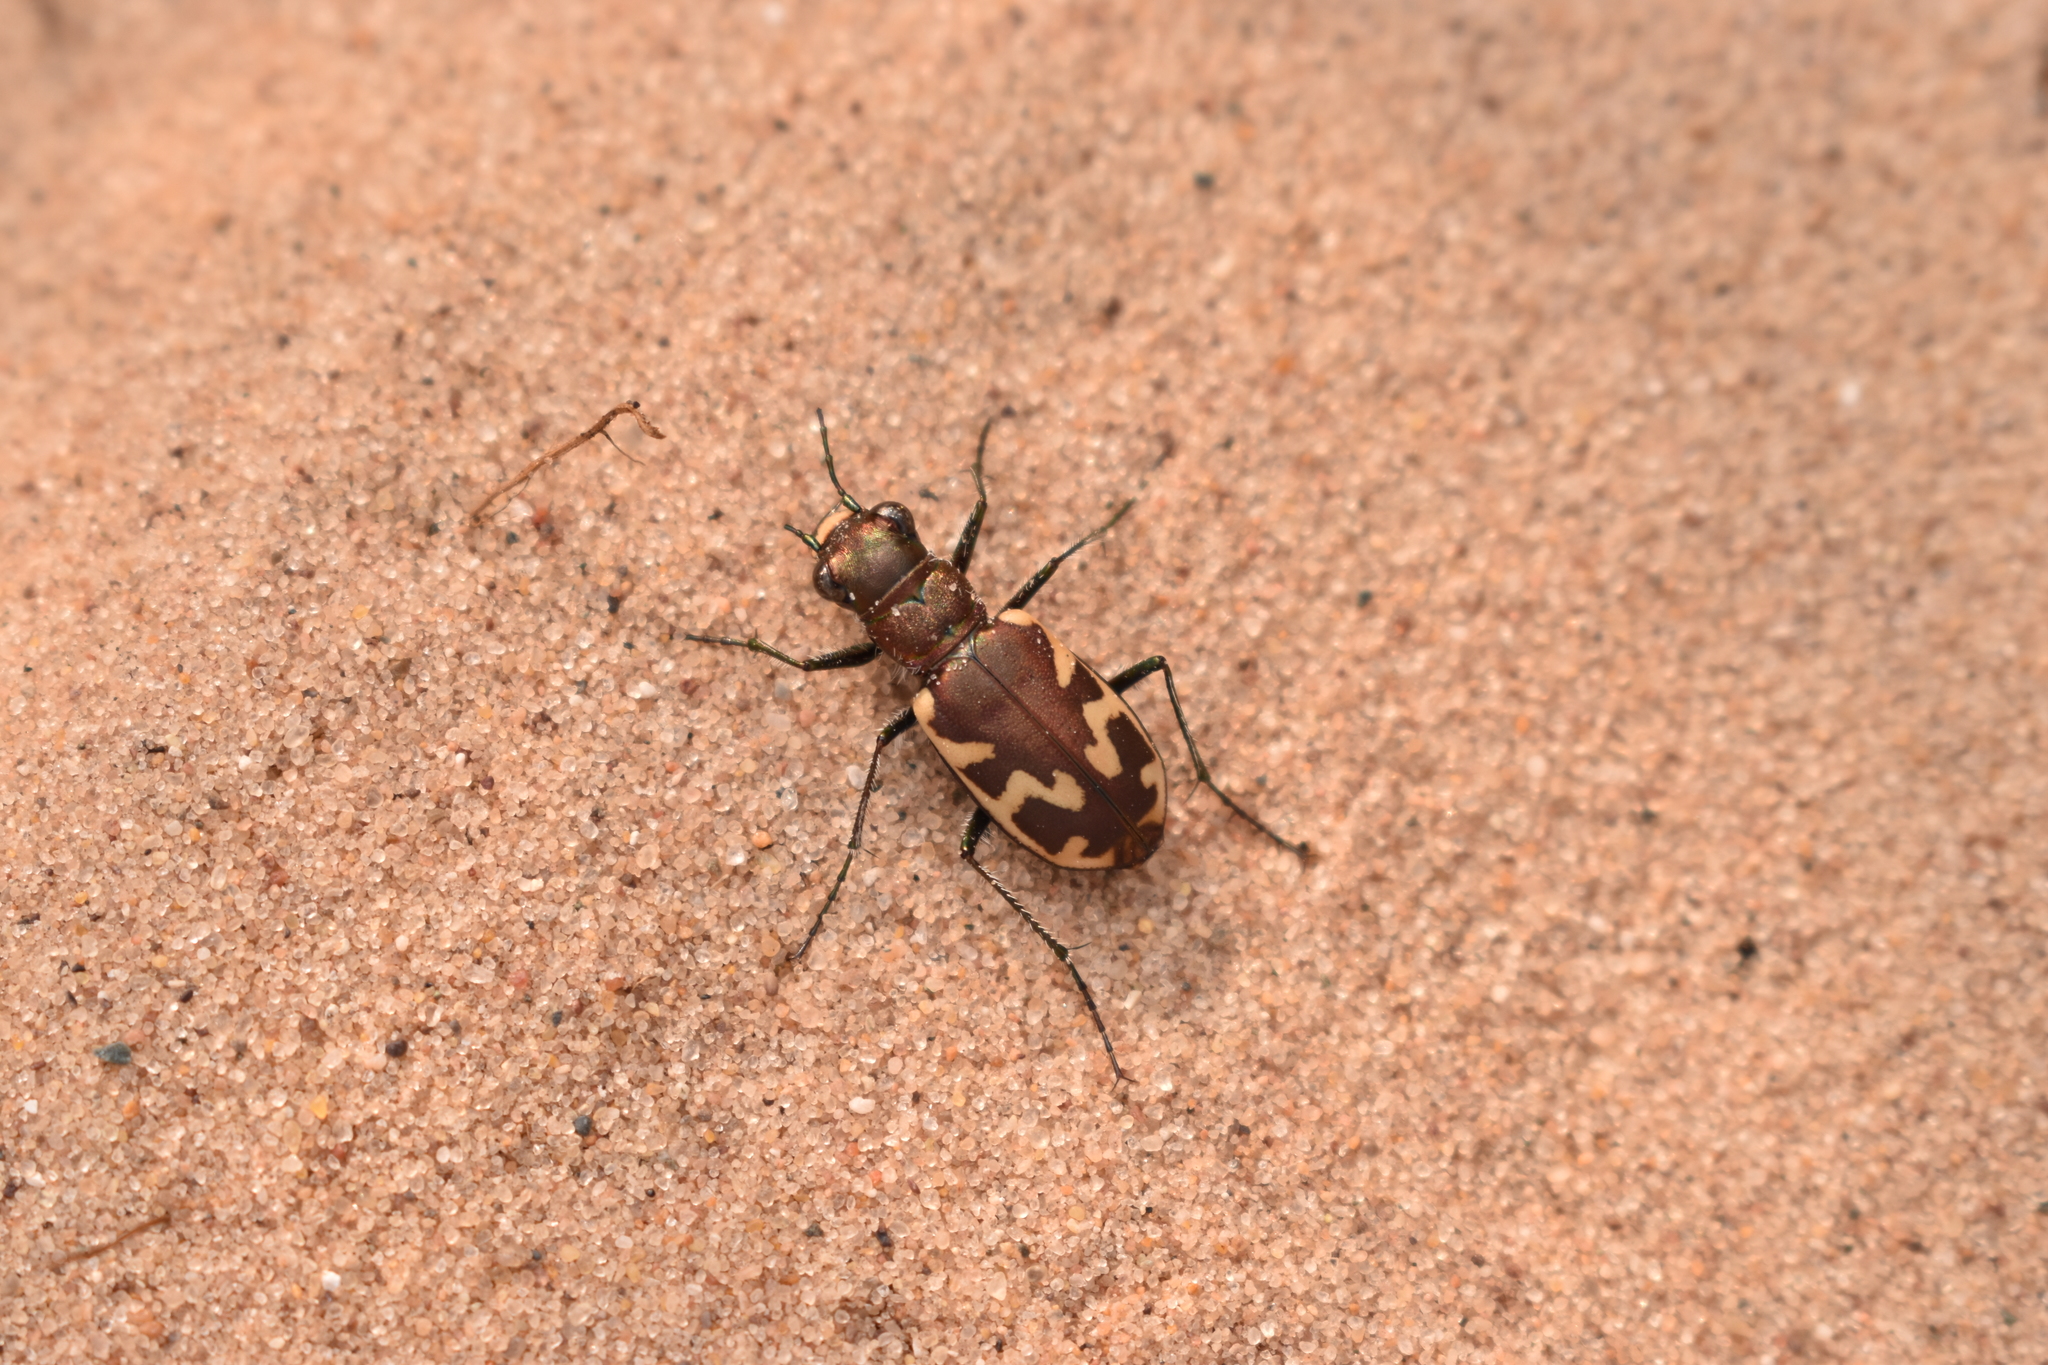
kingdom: Animalia
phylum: Arthropoda
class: Insecta
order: Coleoptera
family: Carabidae
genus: Cicindela
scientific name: Cicindela formosa
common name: Big sand tiger beetle
